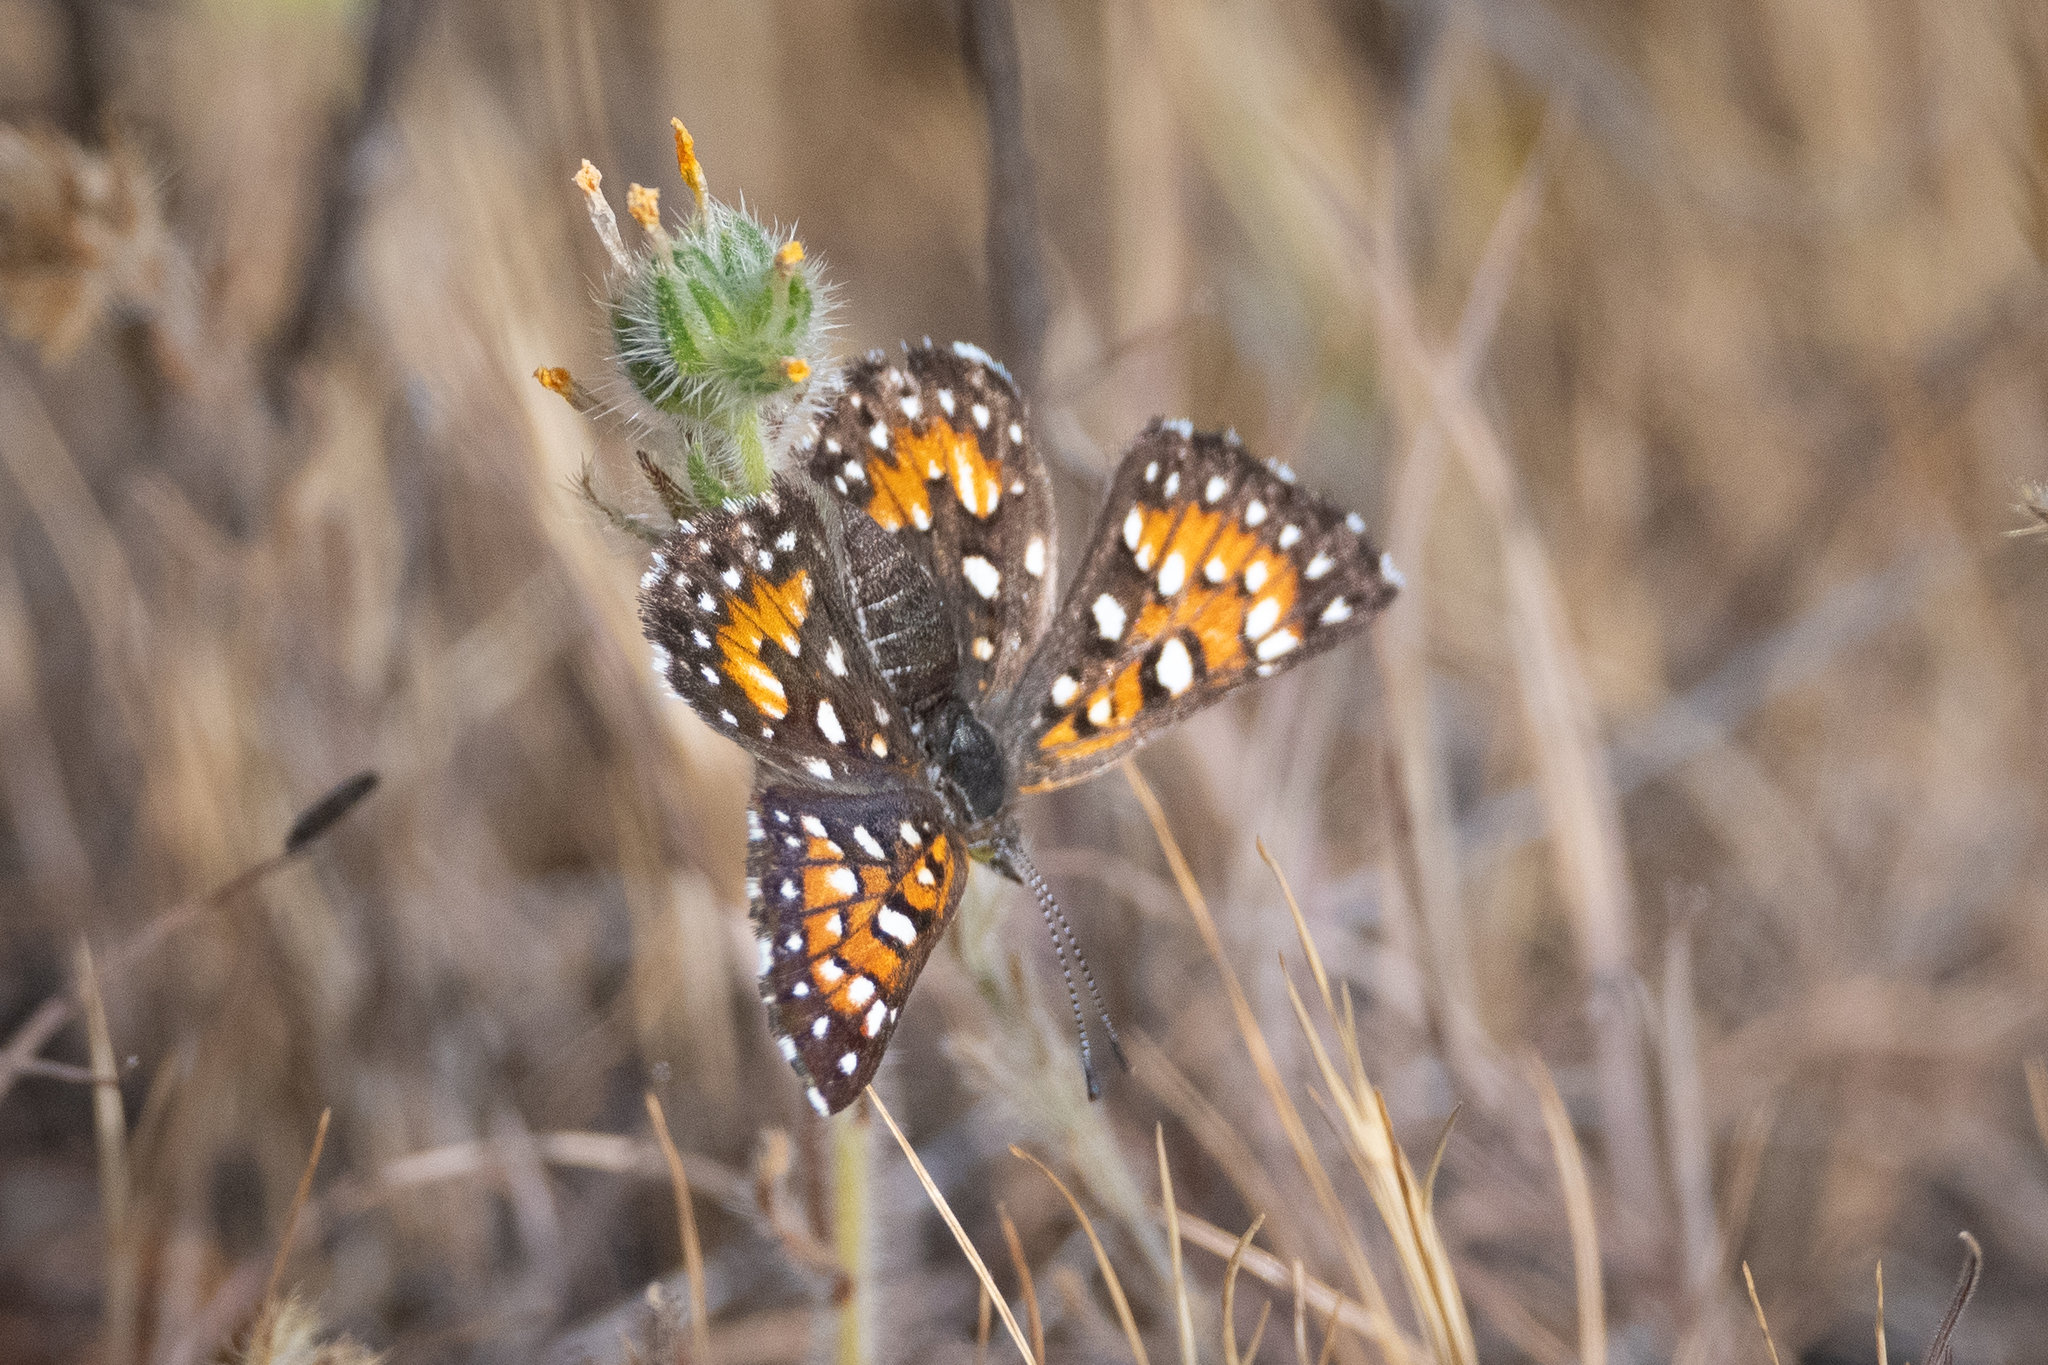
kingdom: Animalia
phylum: Arthropoda
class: Insecta
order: Lepidoptera
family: Riodinidae
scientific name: Riodinidae
